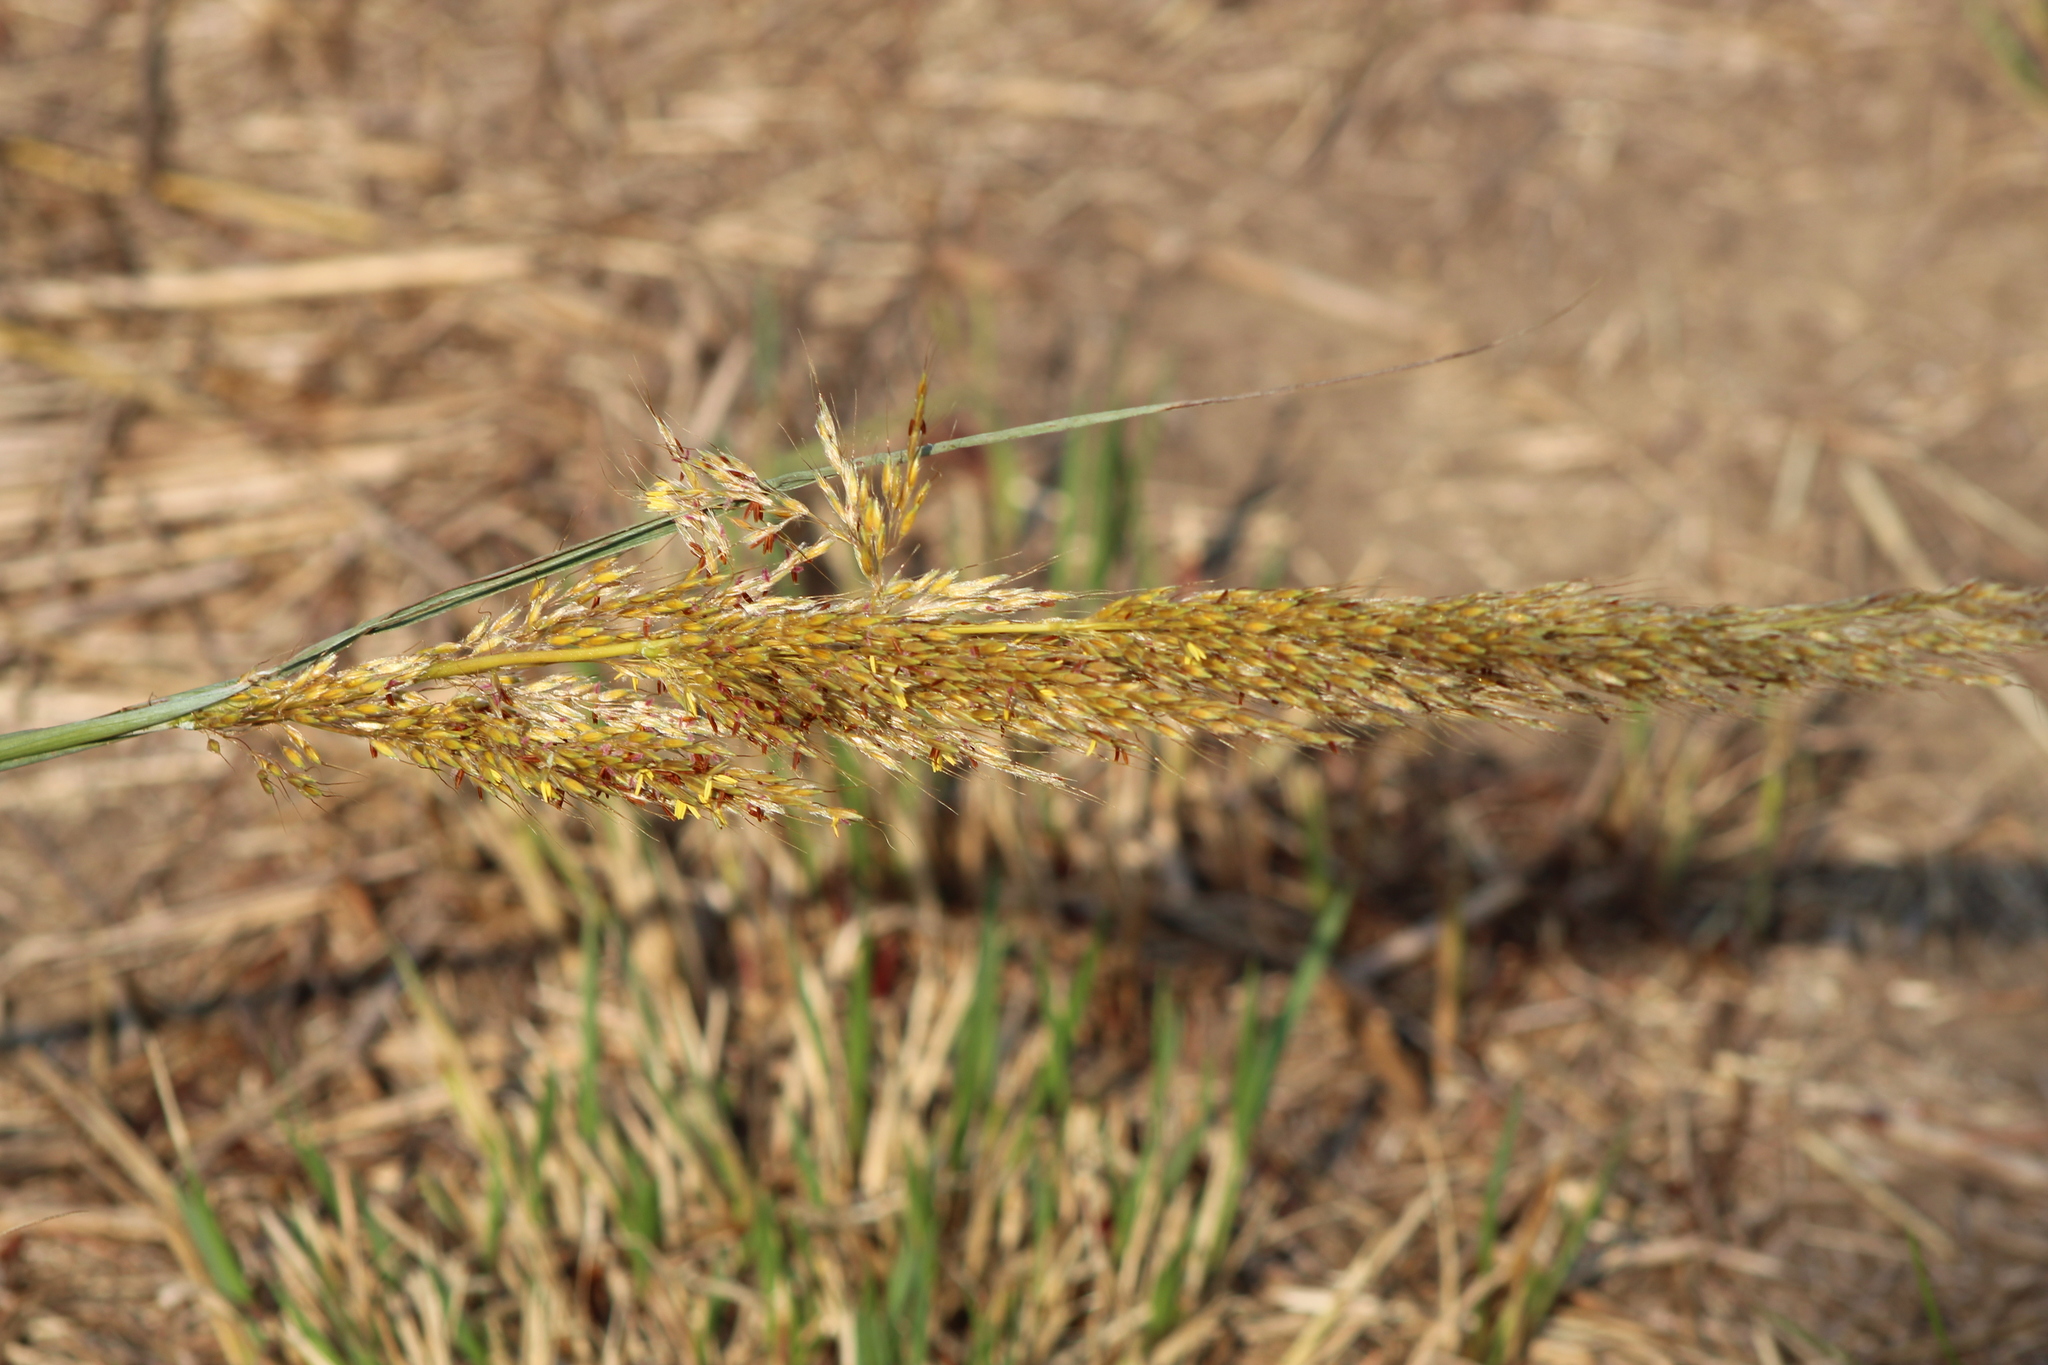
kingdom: Plantae
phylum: Tracheophyta
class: Liliopsida
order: Poales
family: Poaceae
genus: Sorghastrum
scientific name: Sorghastrum nutans
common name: Indian grass
